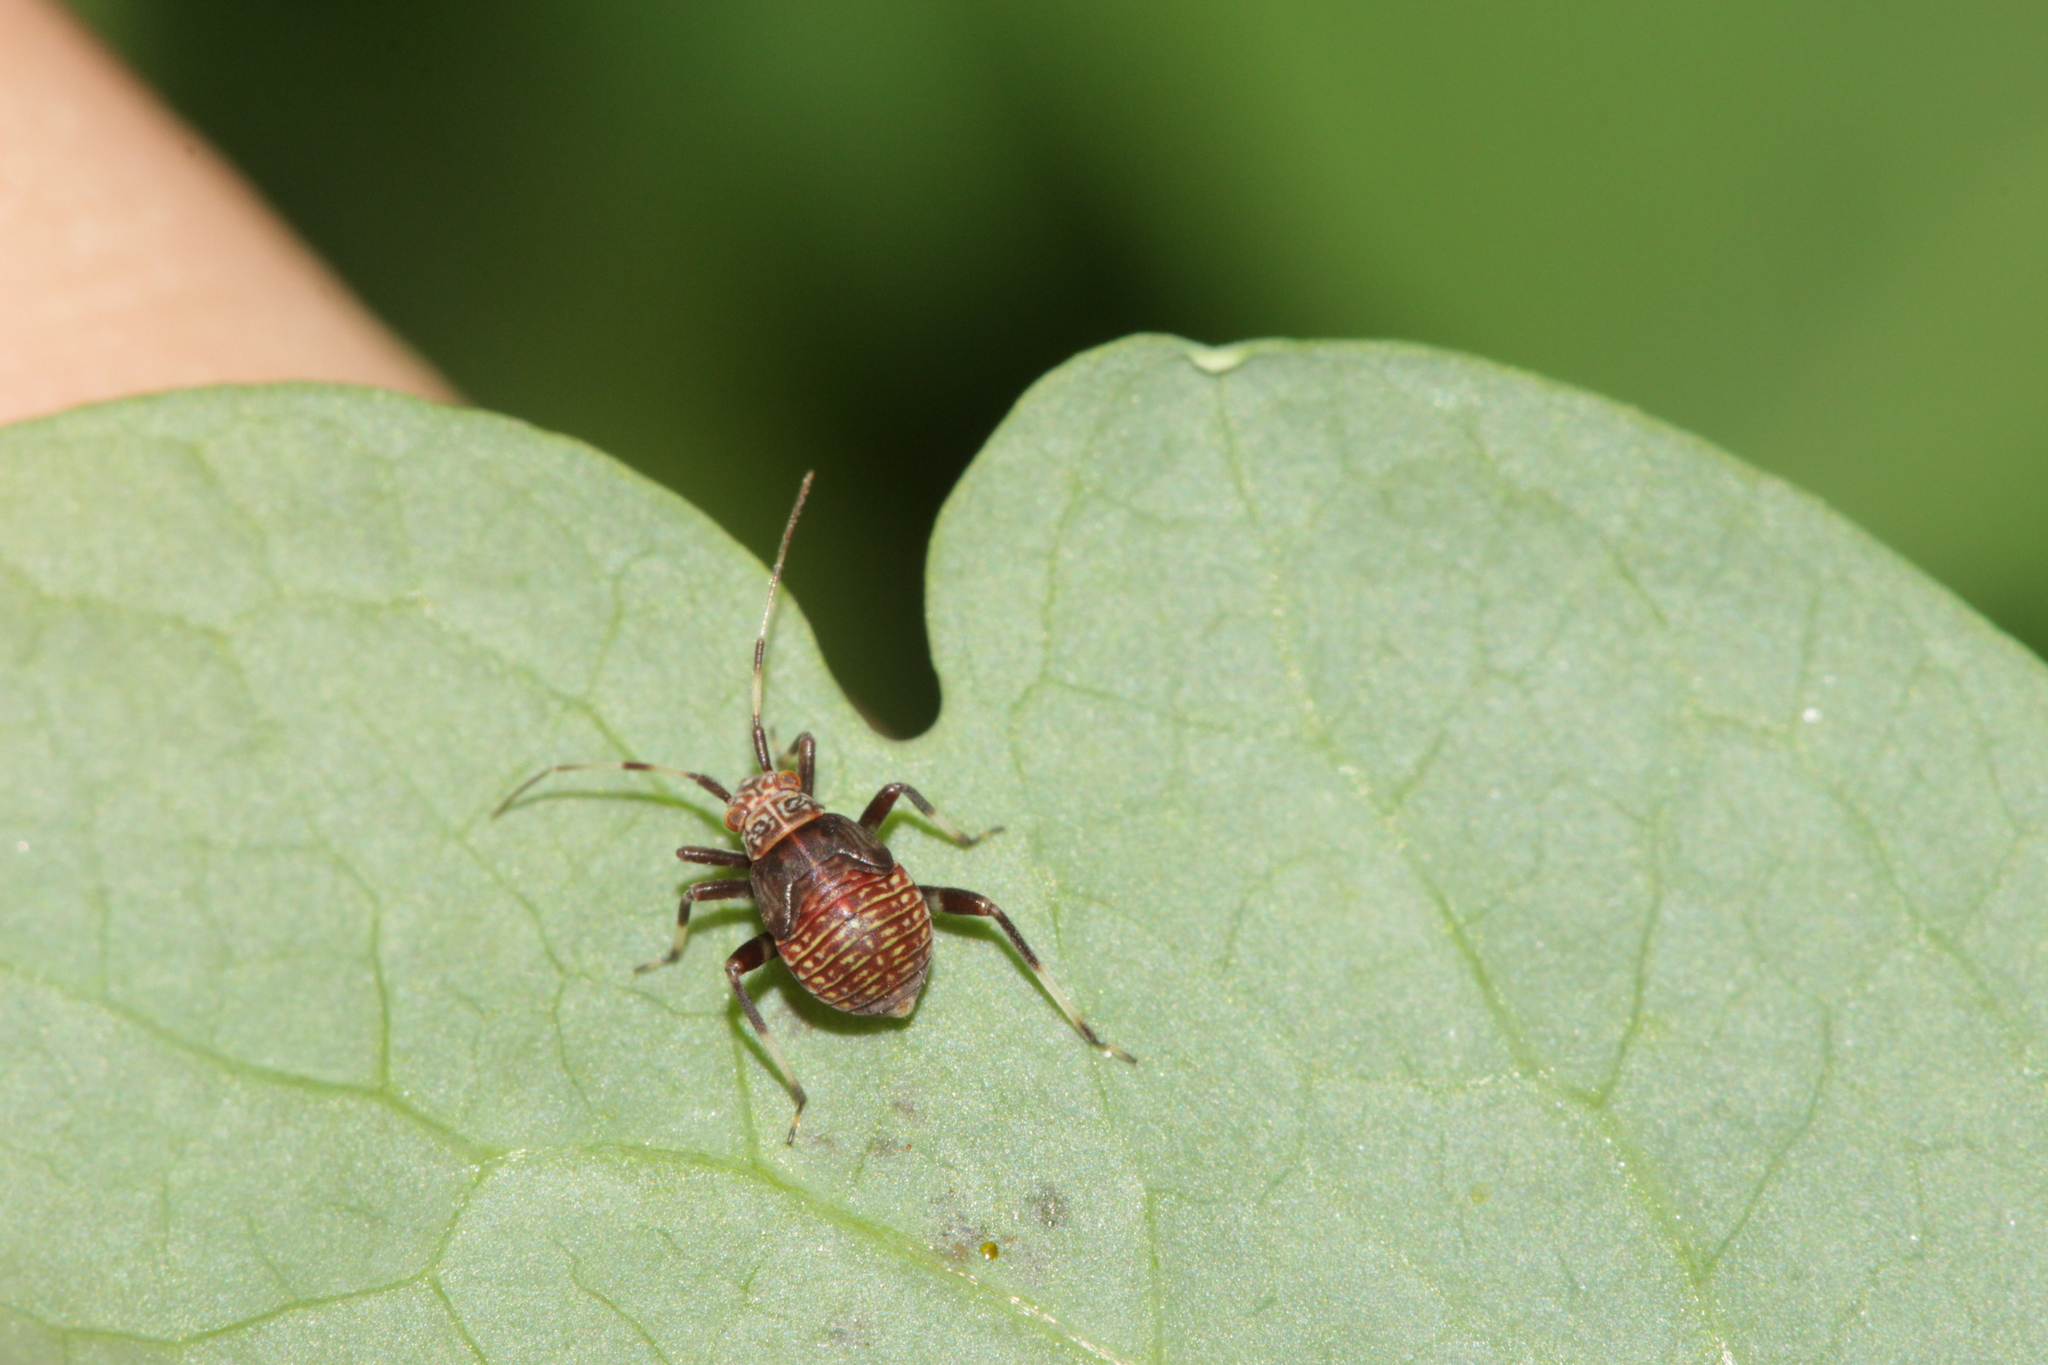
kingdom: Animalia
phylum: Arthropoda
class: Insecta
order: Hemiptera
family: Miridae
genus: Mermitelocerus
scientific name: Mermitelocerus schmidtii
